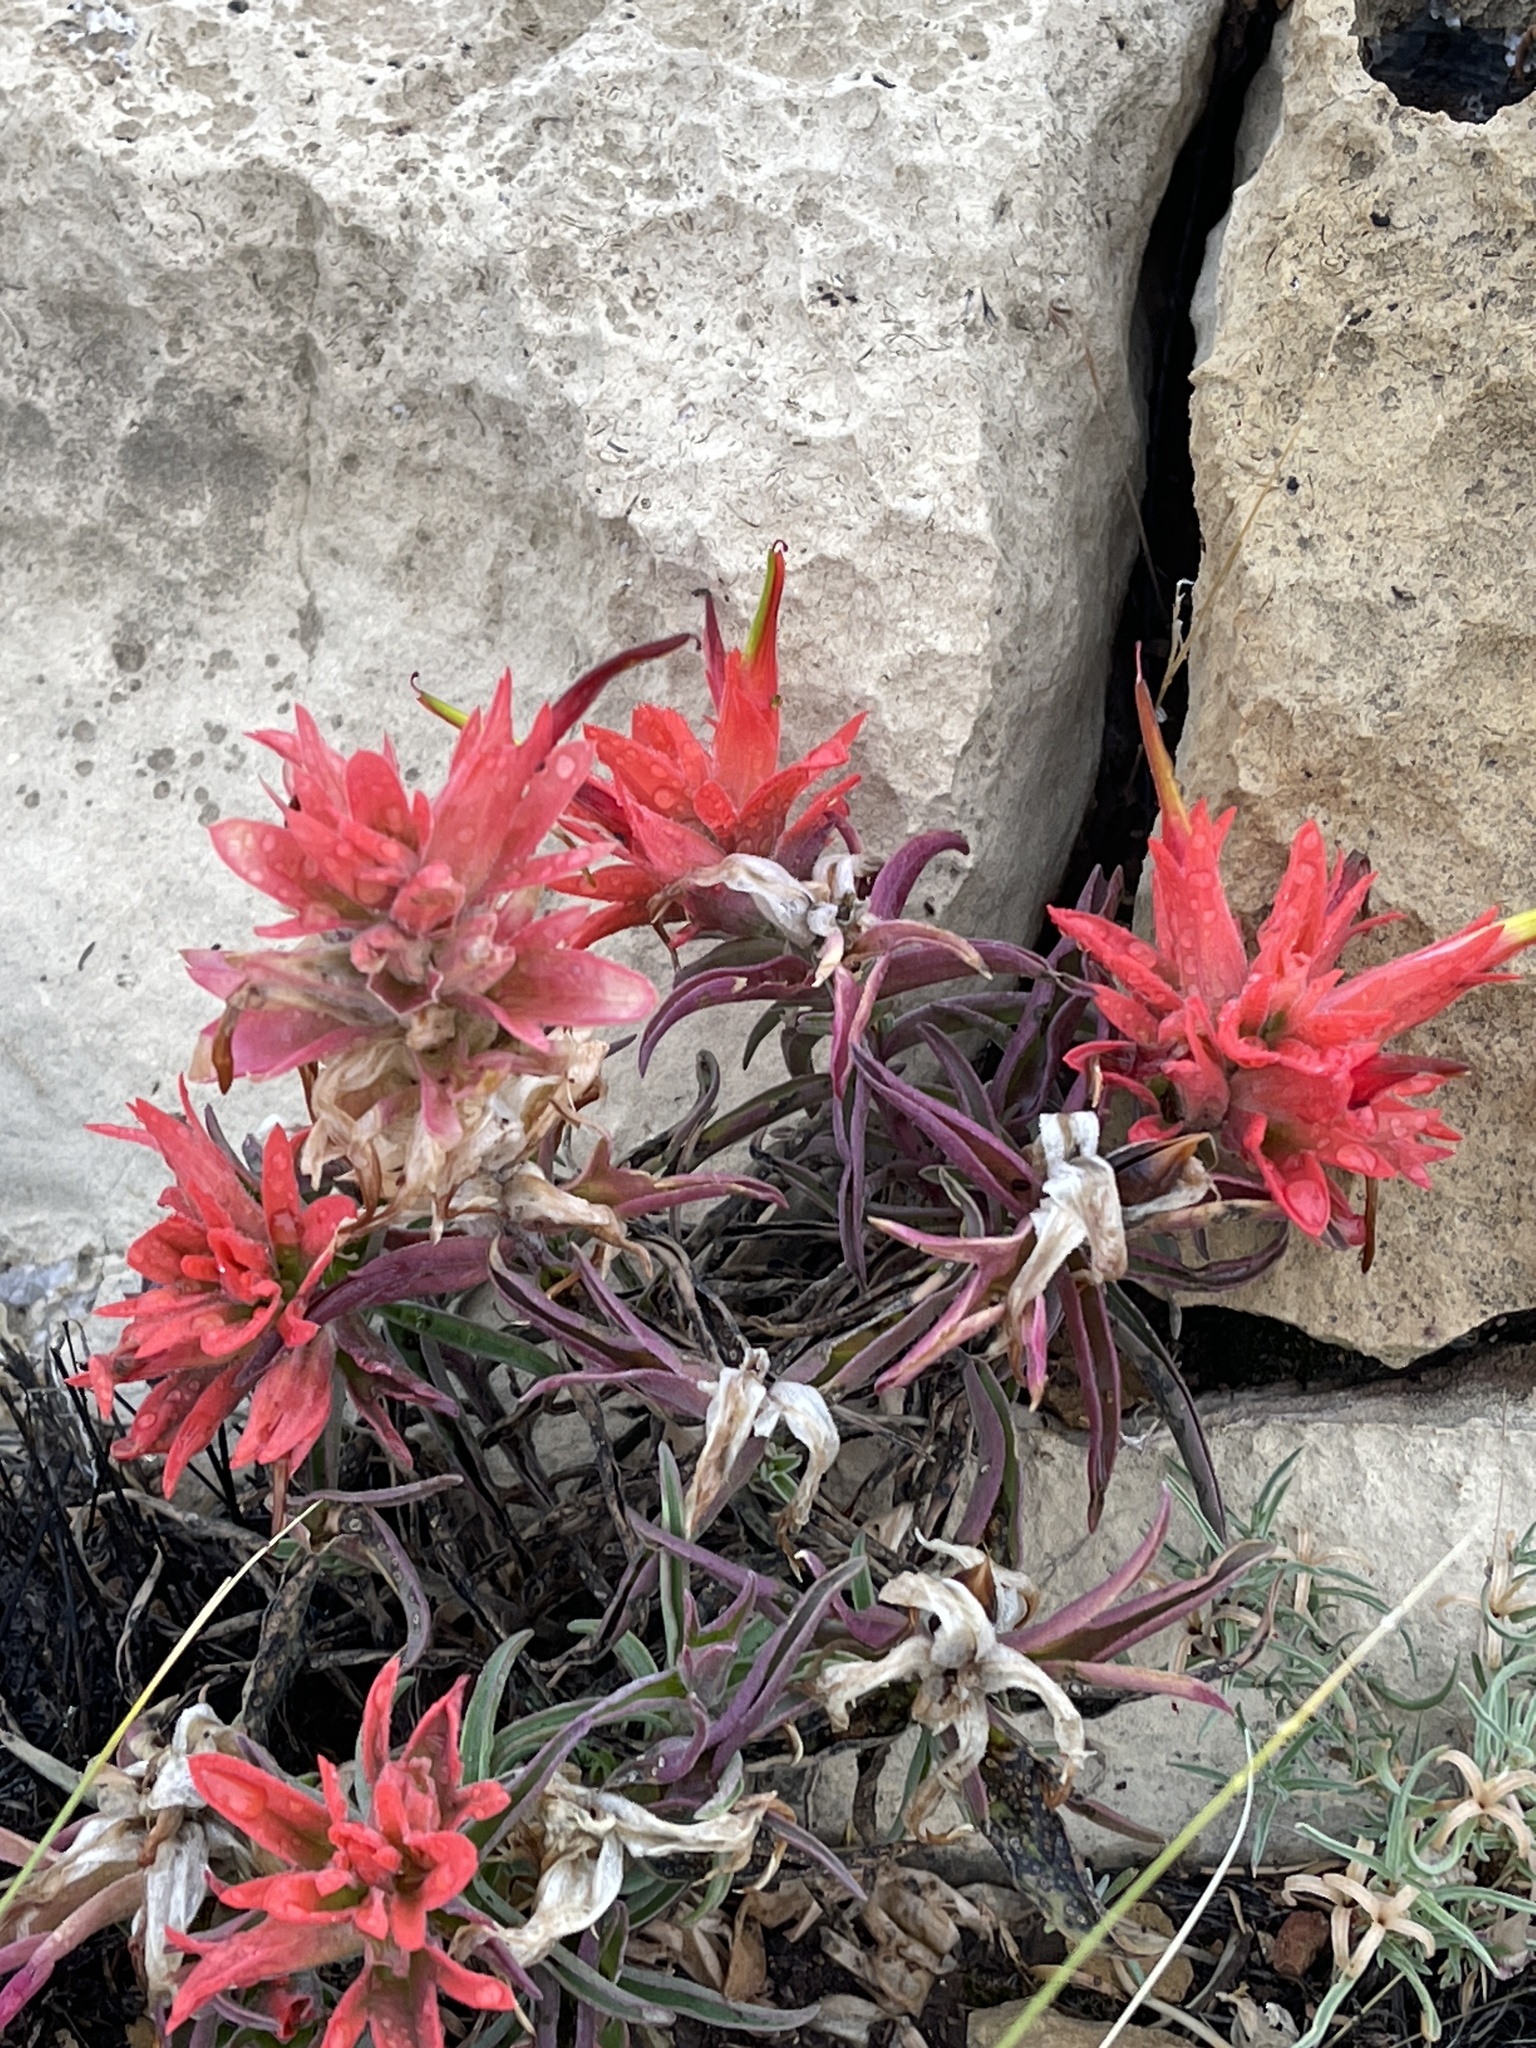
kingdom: Plantae
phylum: Tracheophyta
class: Magnoliopsida
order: Lamiales
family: Orobanchaceae
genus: Castilleja
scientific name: Castilleja integra
